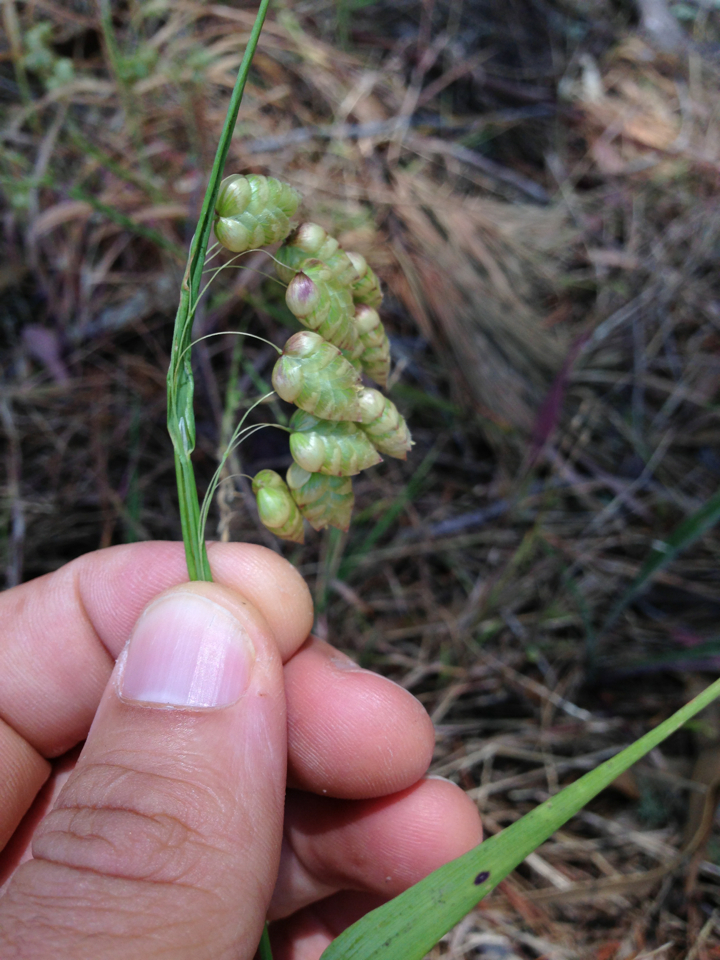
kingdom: Plantae
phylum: Tracheophyta
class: Liliopsida
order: Poales
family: Poaceae
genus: Briza
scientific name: Briza maxima
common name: Big quakinggrass
